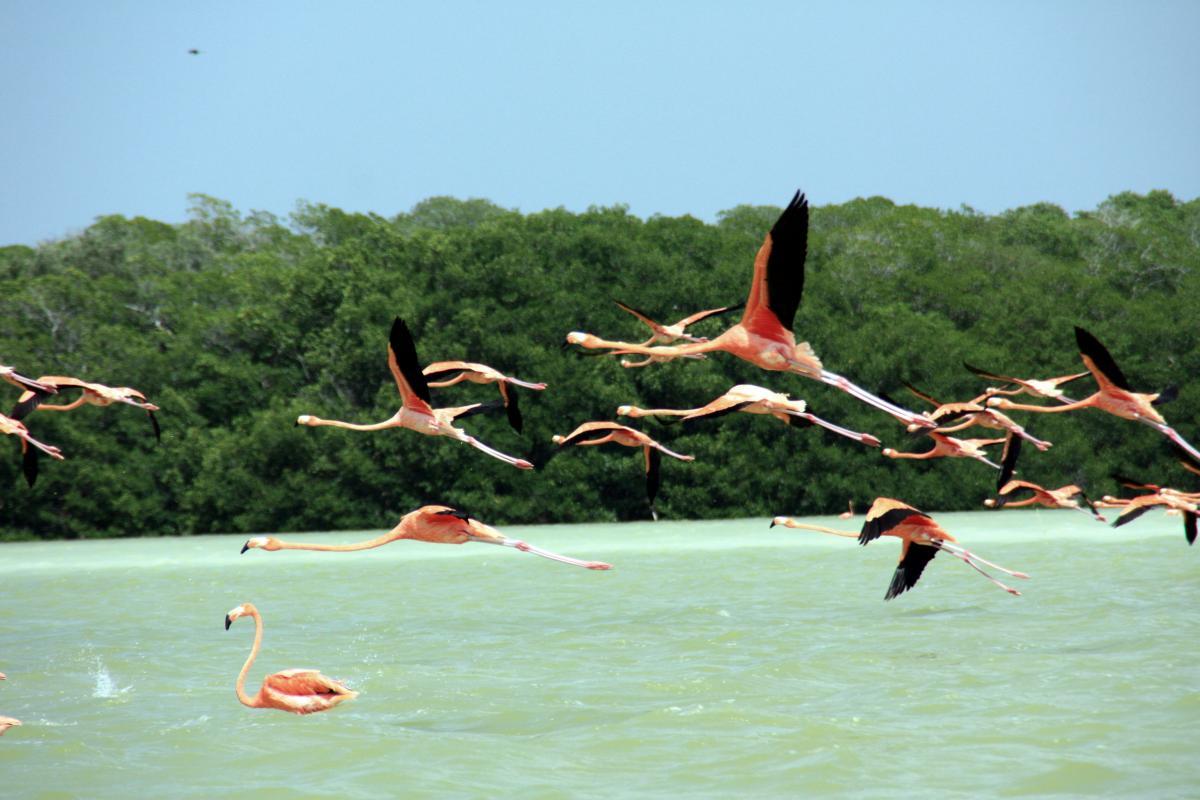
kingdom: Animalia
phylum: Chordata
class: Aves
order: Phoenicopteriformes
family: Phoenicopteridae
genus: Phoenicopterus
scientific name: Phoenicopterus ruber
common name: American flamingo
